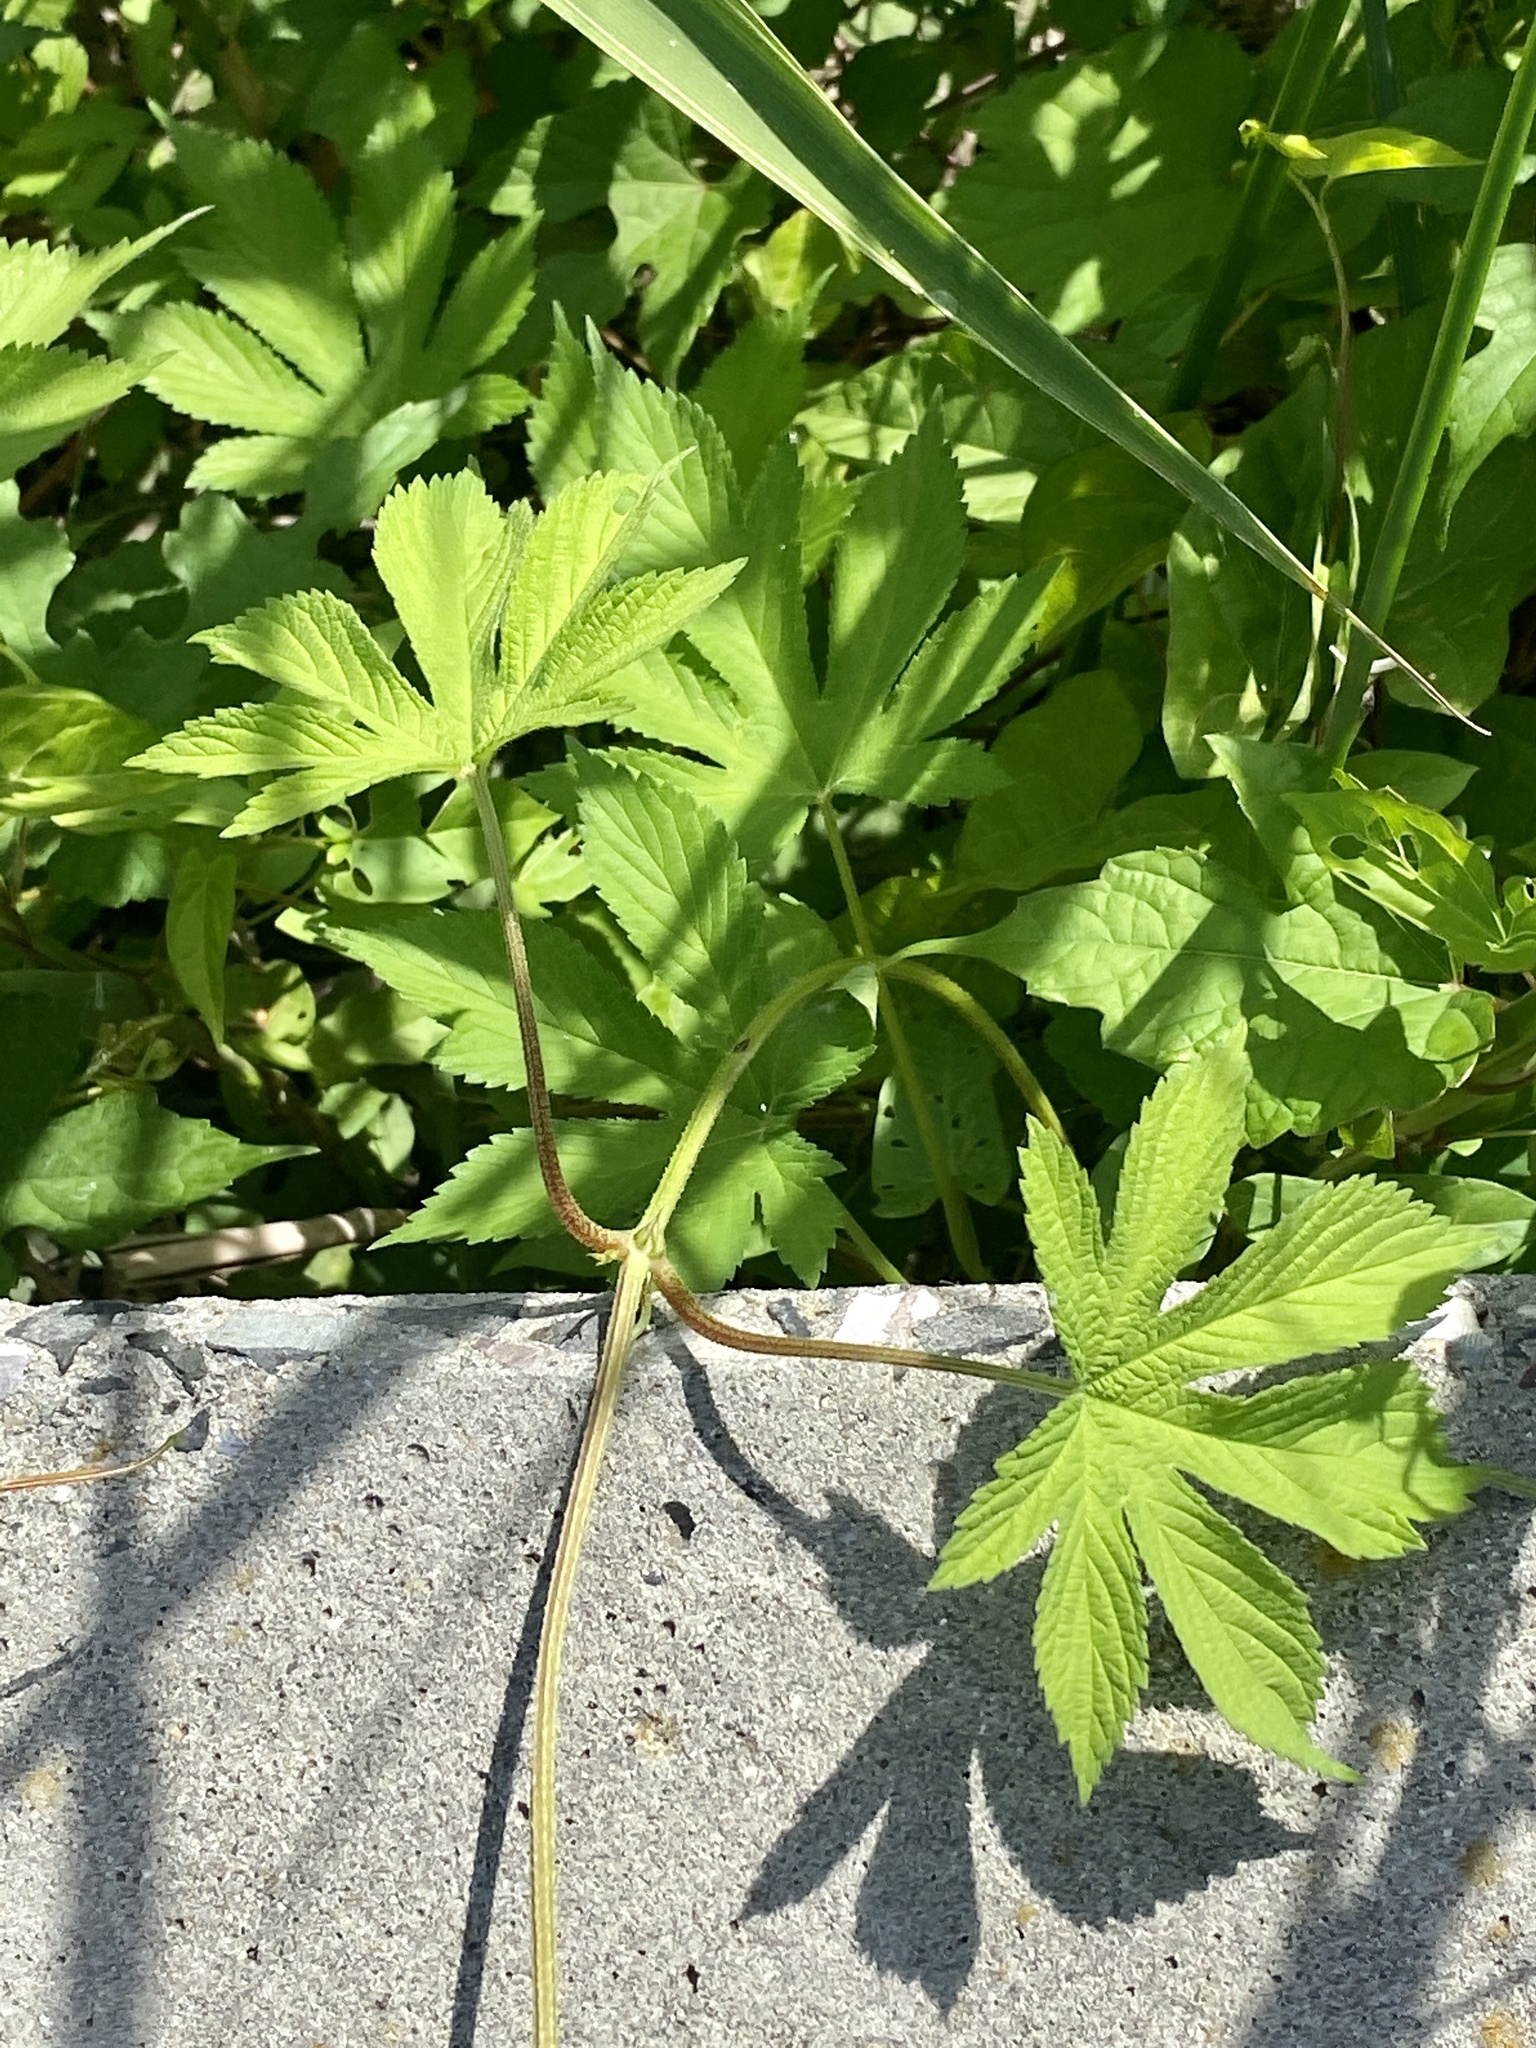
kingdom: Plantae
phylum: Tracheophyta
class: Magnoliopsida
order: Rosales
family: Cannabaceae
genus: Humulus
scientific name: Humulus scandens
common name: Japanese hop
